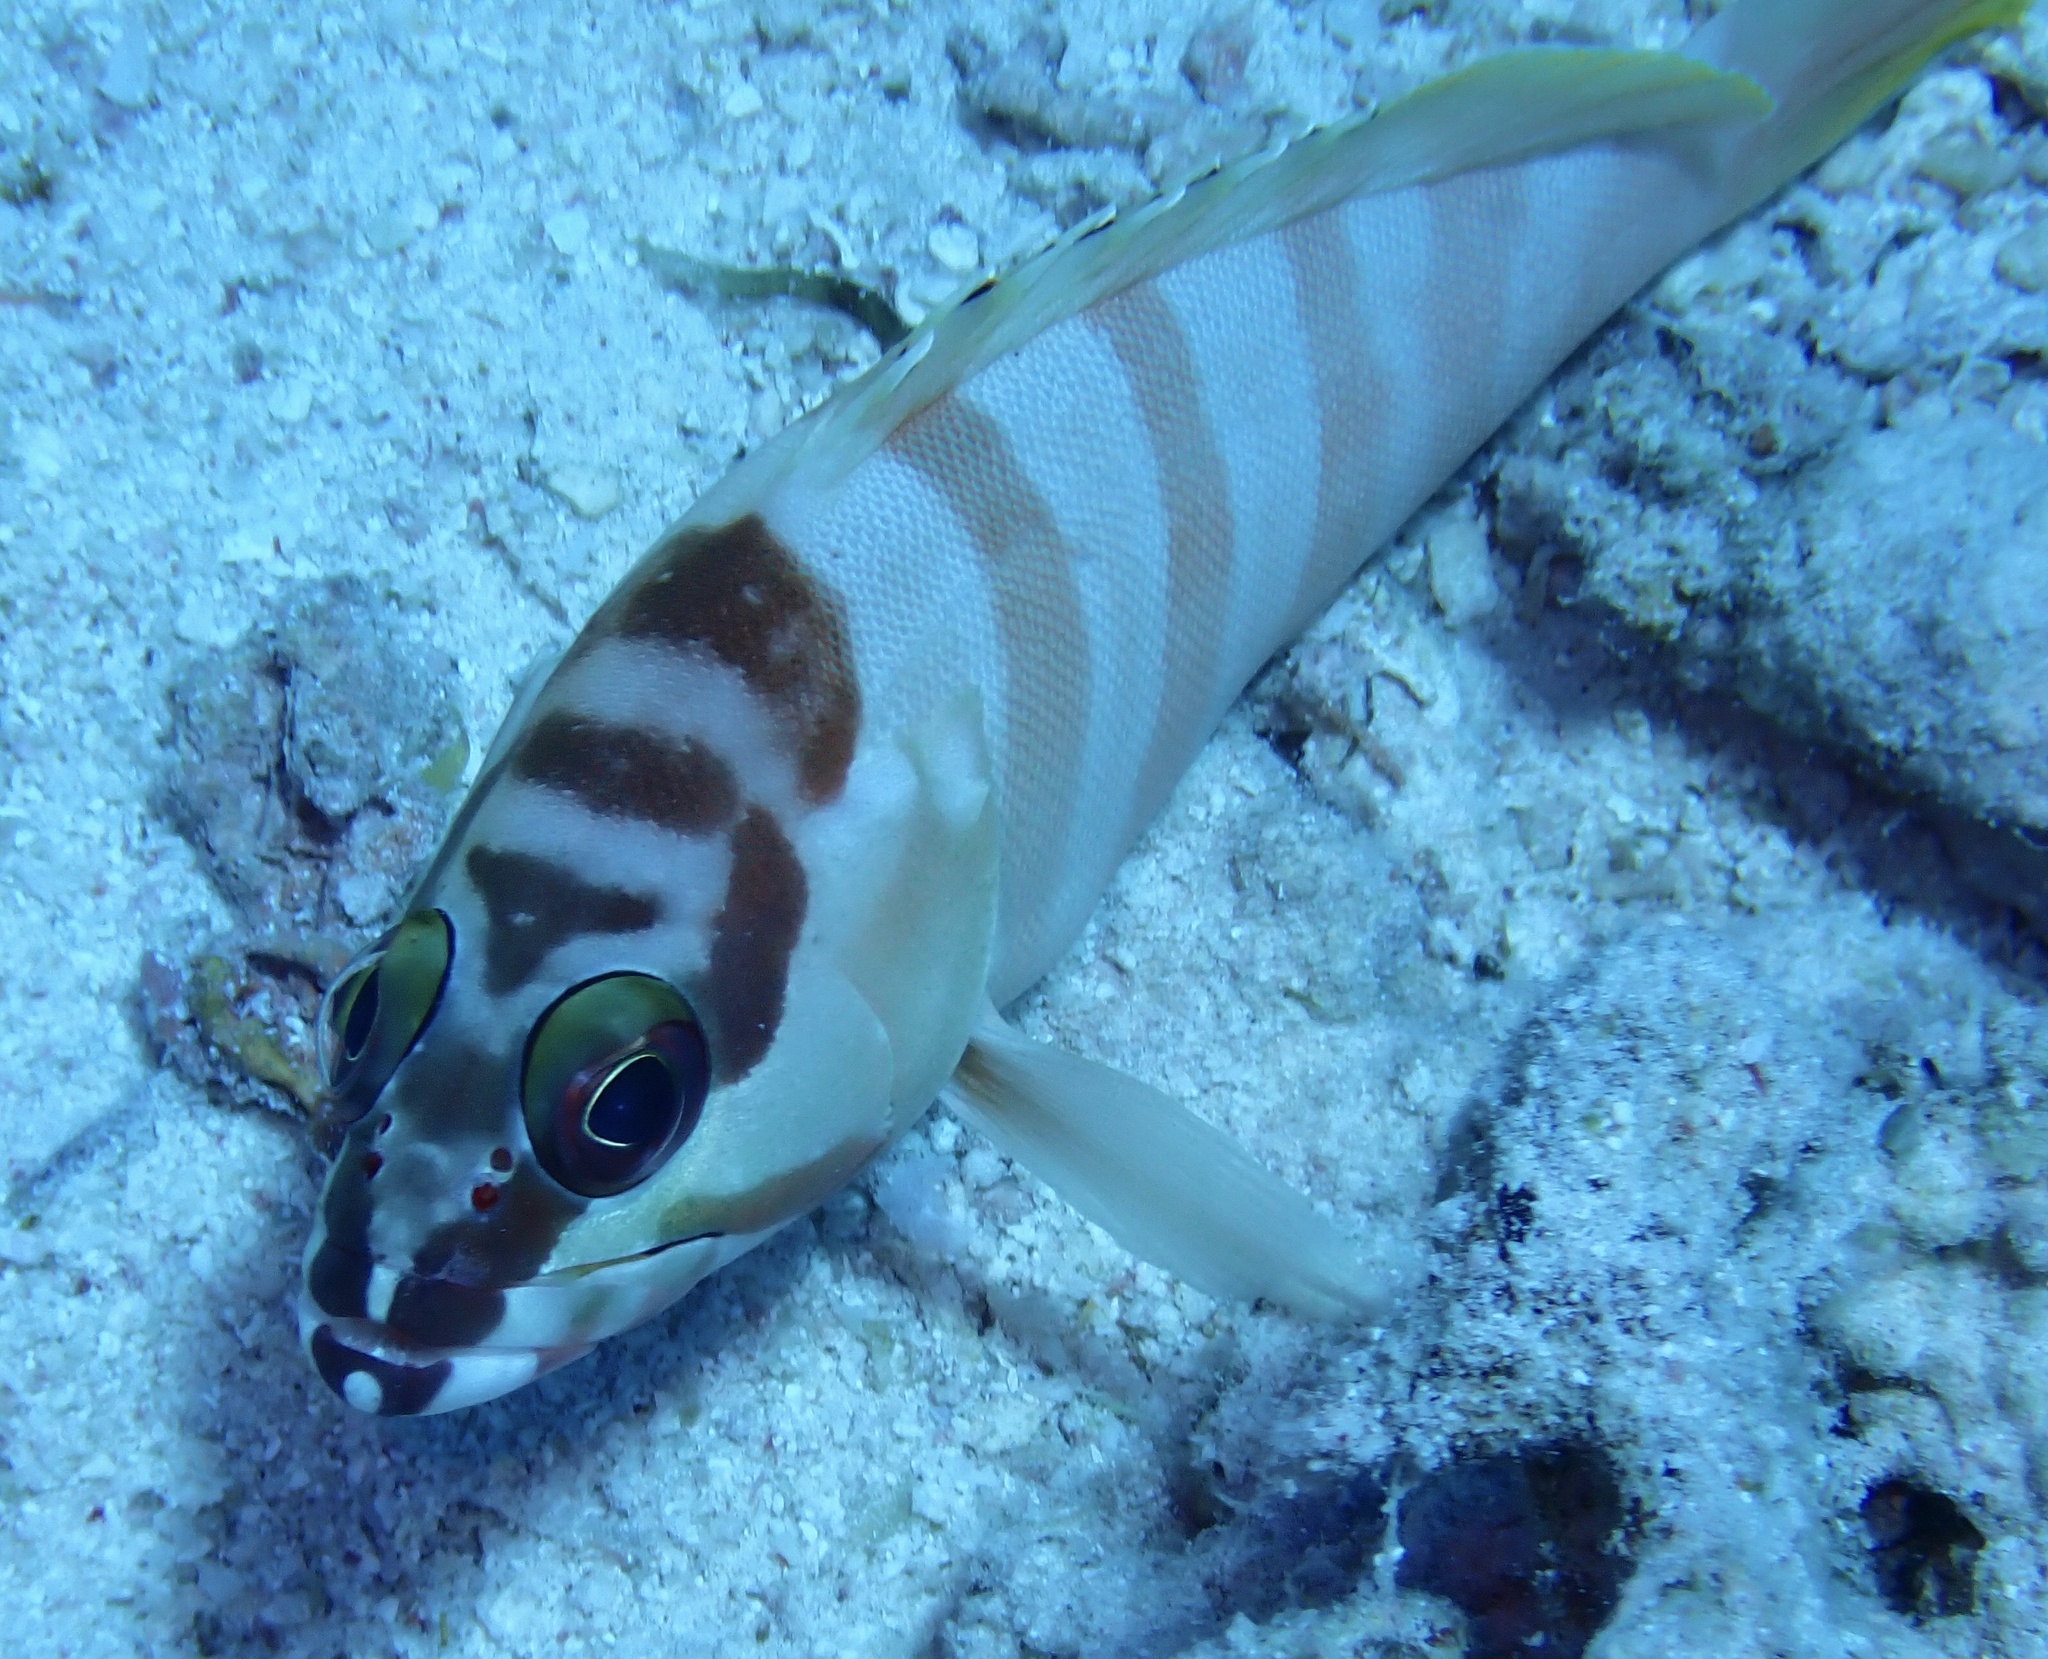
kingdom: Animalia
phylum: Chordata
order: Perciformes
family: Serranidae
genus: Epinephelus
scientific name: Epinephelus fasciatus
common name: Blacktip grouper
